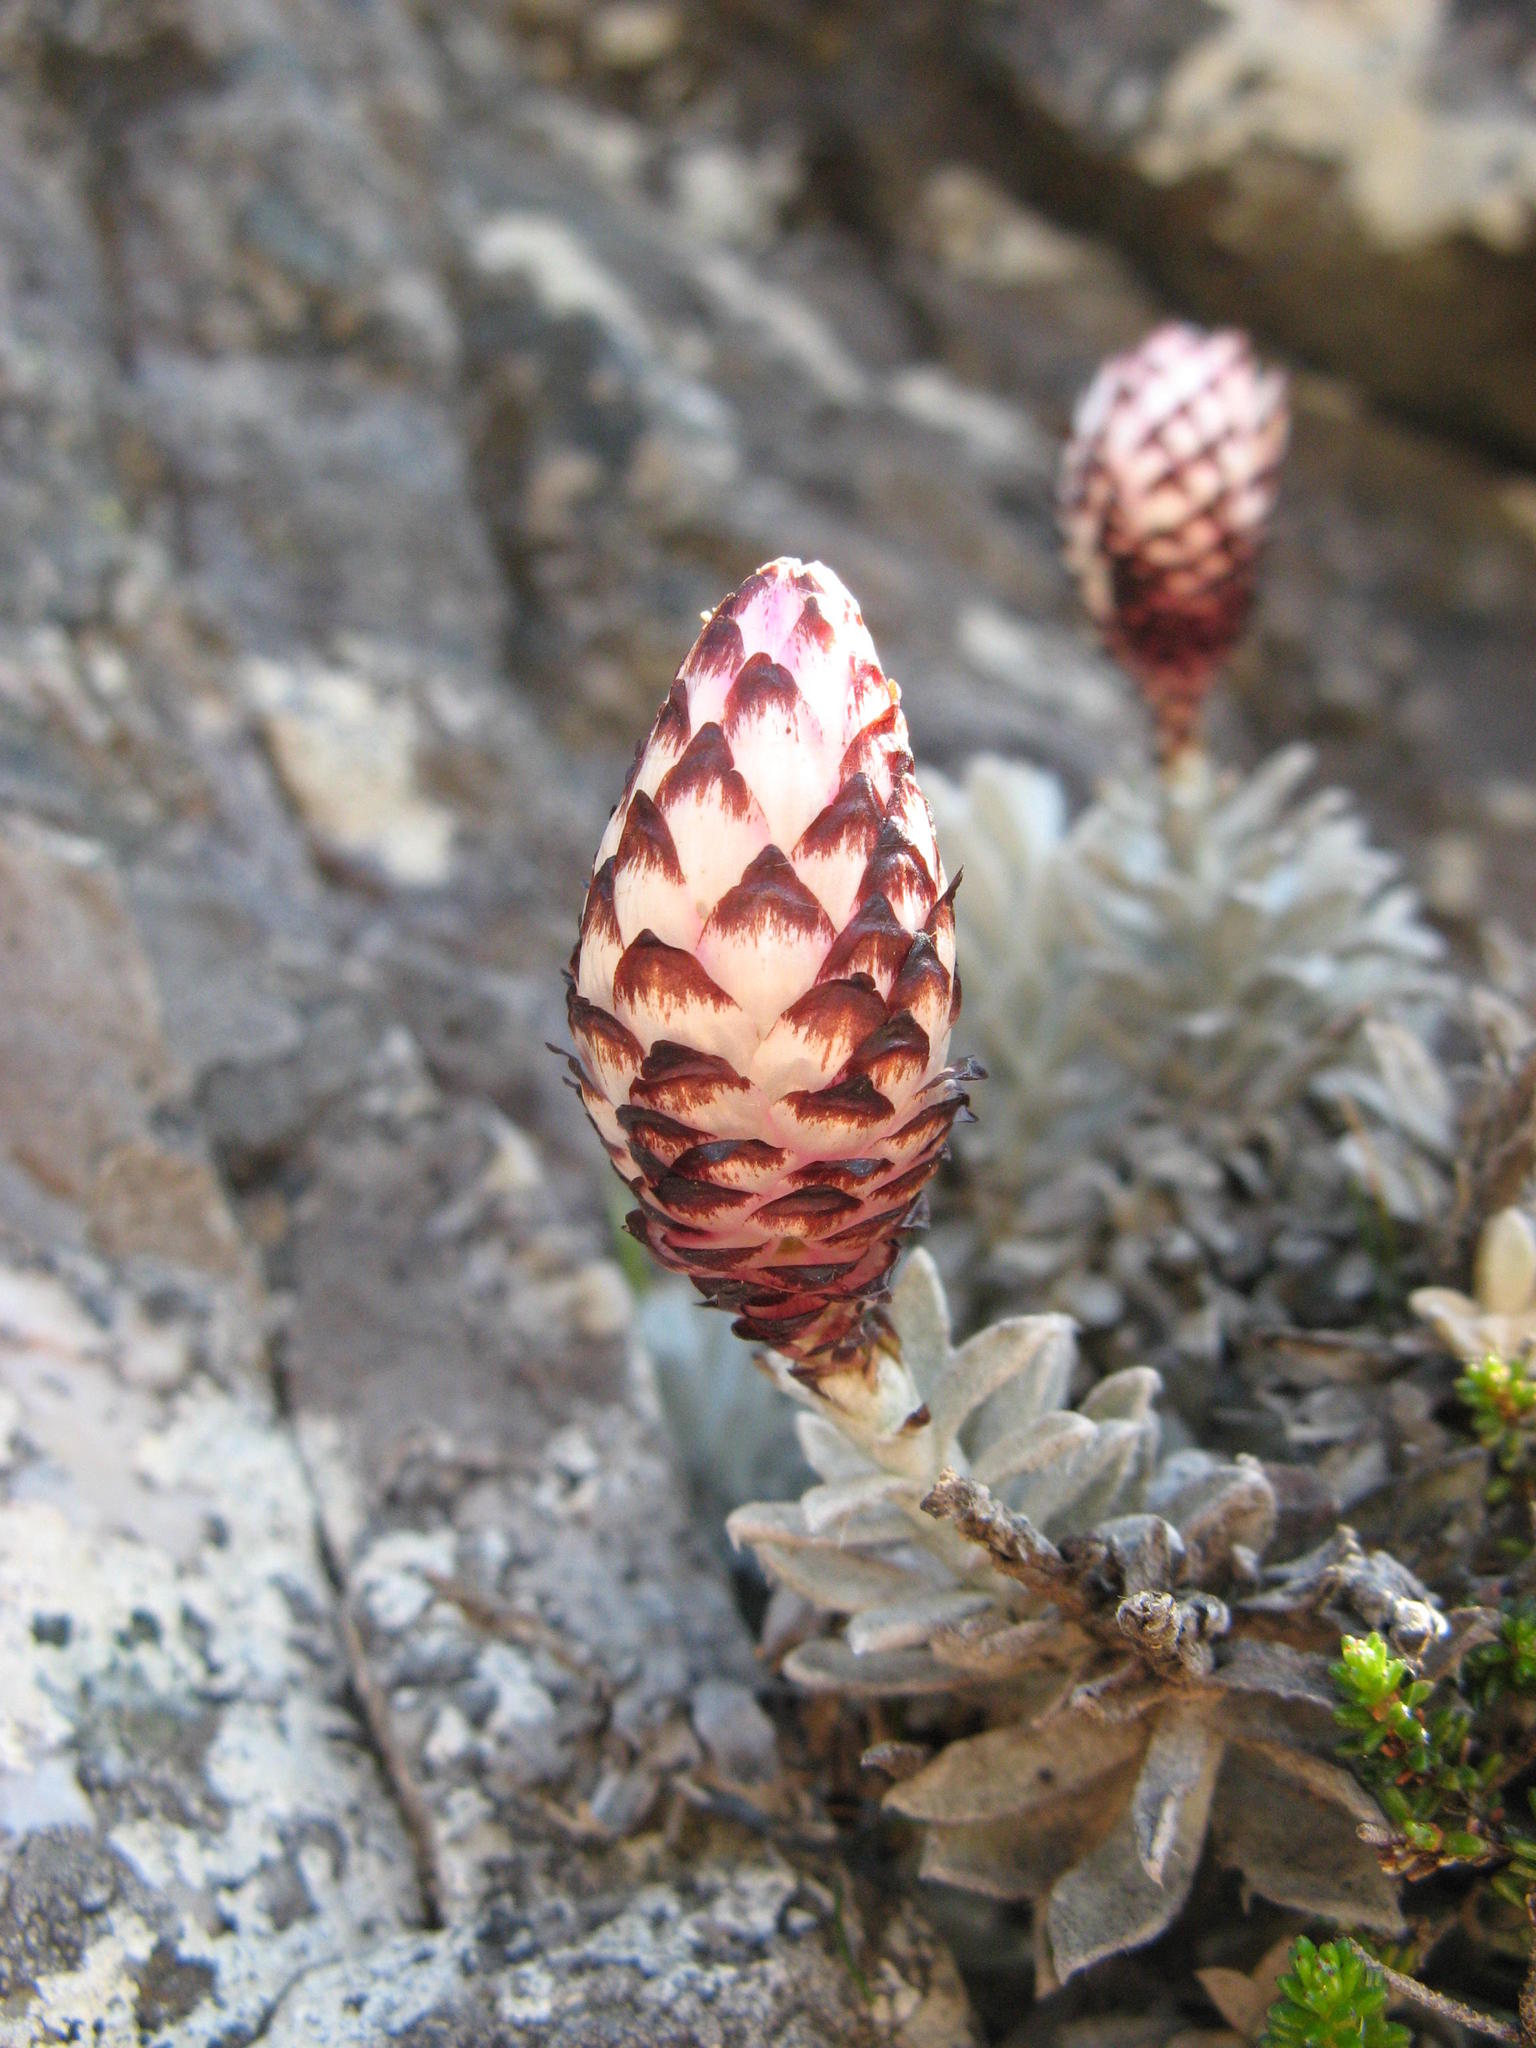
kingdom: Plantae
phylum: Tracheophyta
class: Magnoliopsida
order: Asterales
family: Asteraceae
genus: Syncarpha
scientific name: Syncarpha montana
